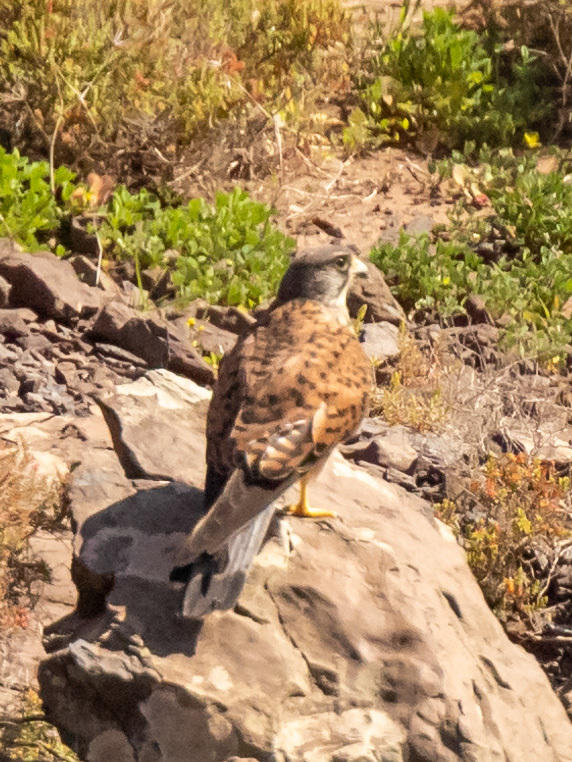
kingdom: Animalia
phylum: Chordata
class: Aves
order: Falconiformes
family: Falconidae
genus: Falco
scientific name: Falco tinnunculus
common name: Common kestrel
